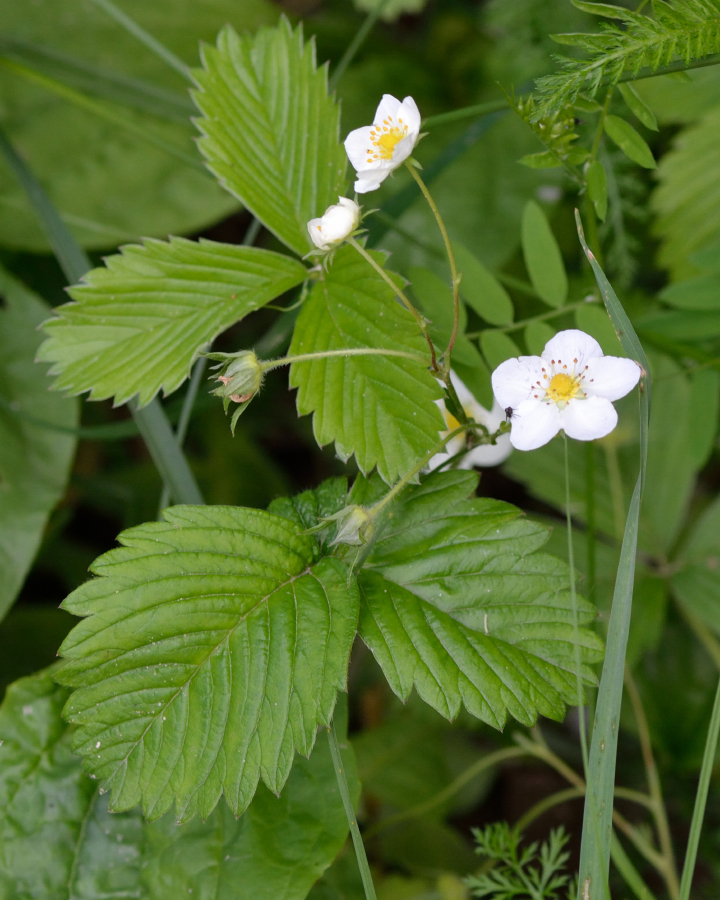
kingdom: Plantae
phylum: Tracheophyta
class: Magnoliopsida
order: Rosales
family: Rosaceae
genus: Fragaria
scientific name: Fragaria viridis
